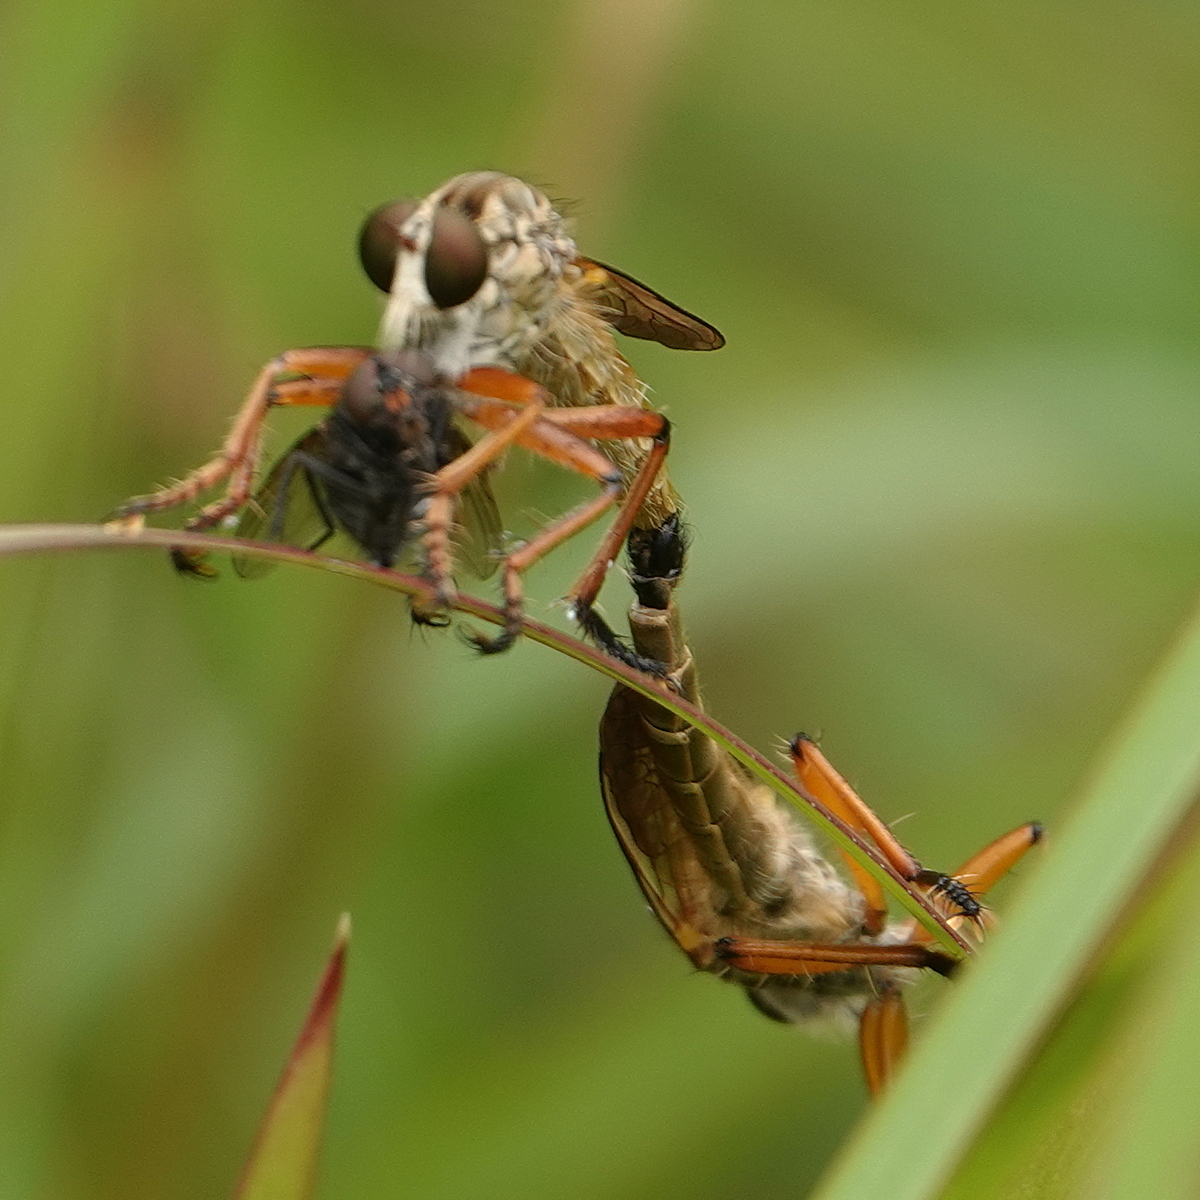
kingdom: Animalia
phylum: Arthropoda
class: Insecta
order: Diptera
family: Asilidae
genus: Zosteria
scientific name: Zosteria fulvipubescens
